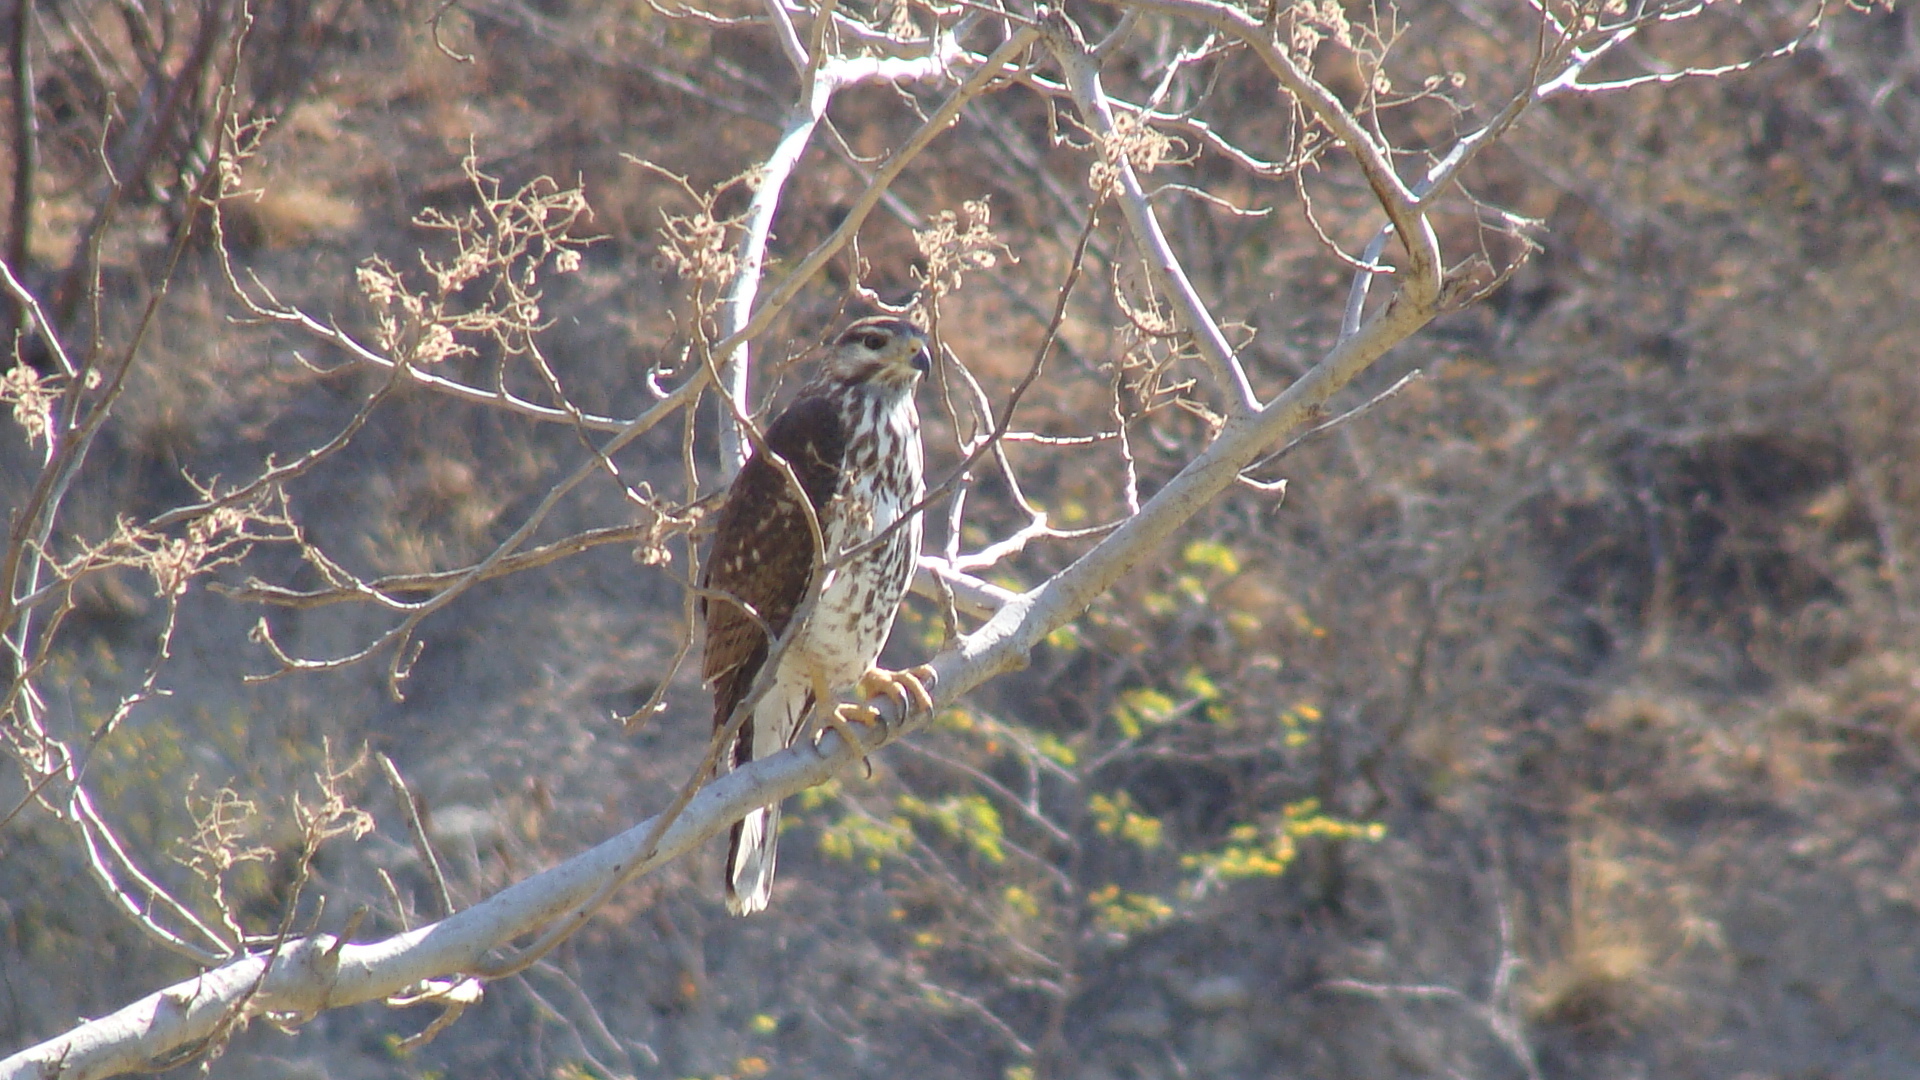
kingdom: Animalia
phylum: Chordata
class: Aves
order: Accipitriformes
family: Accipitridae
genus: Buteo
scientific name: Buteo nitidus
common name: Grey-lined hawk
